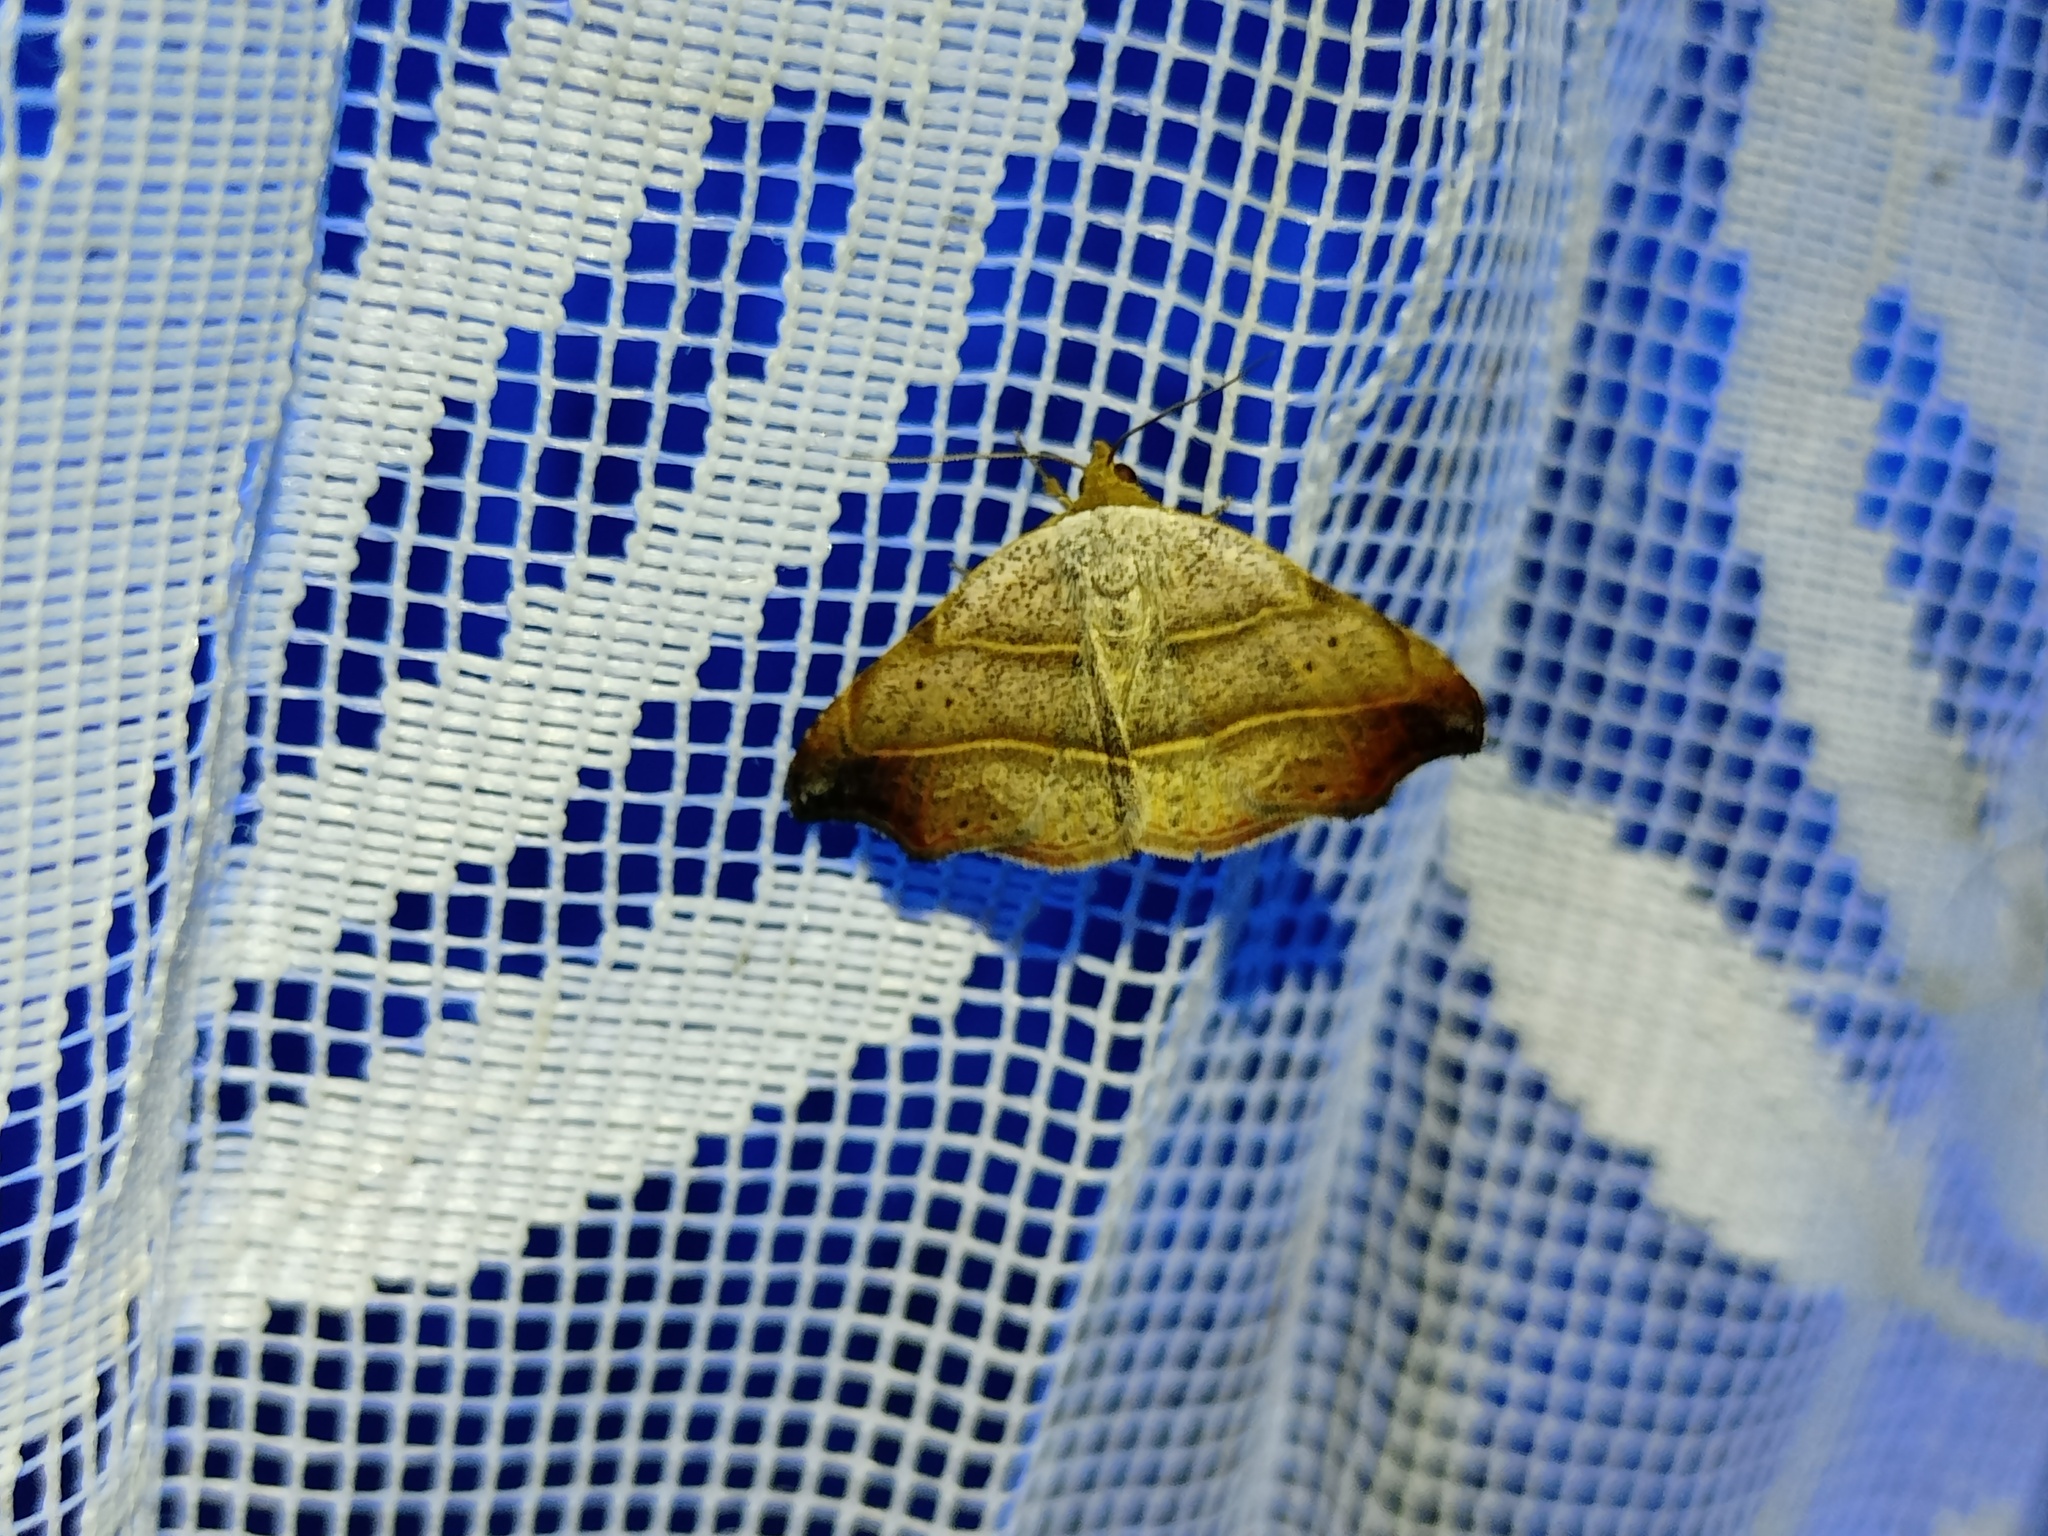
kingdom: Animalia
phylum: Arthropoda
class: Insecta
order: Lepidoptera
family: Erebidae
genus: Laspeyria
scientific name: Laspeyria flexula
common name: Beautiful hook-tip
